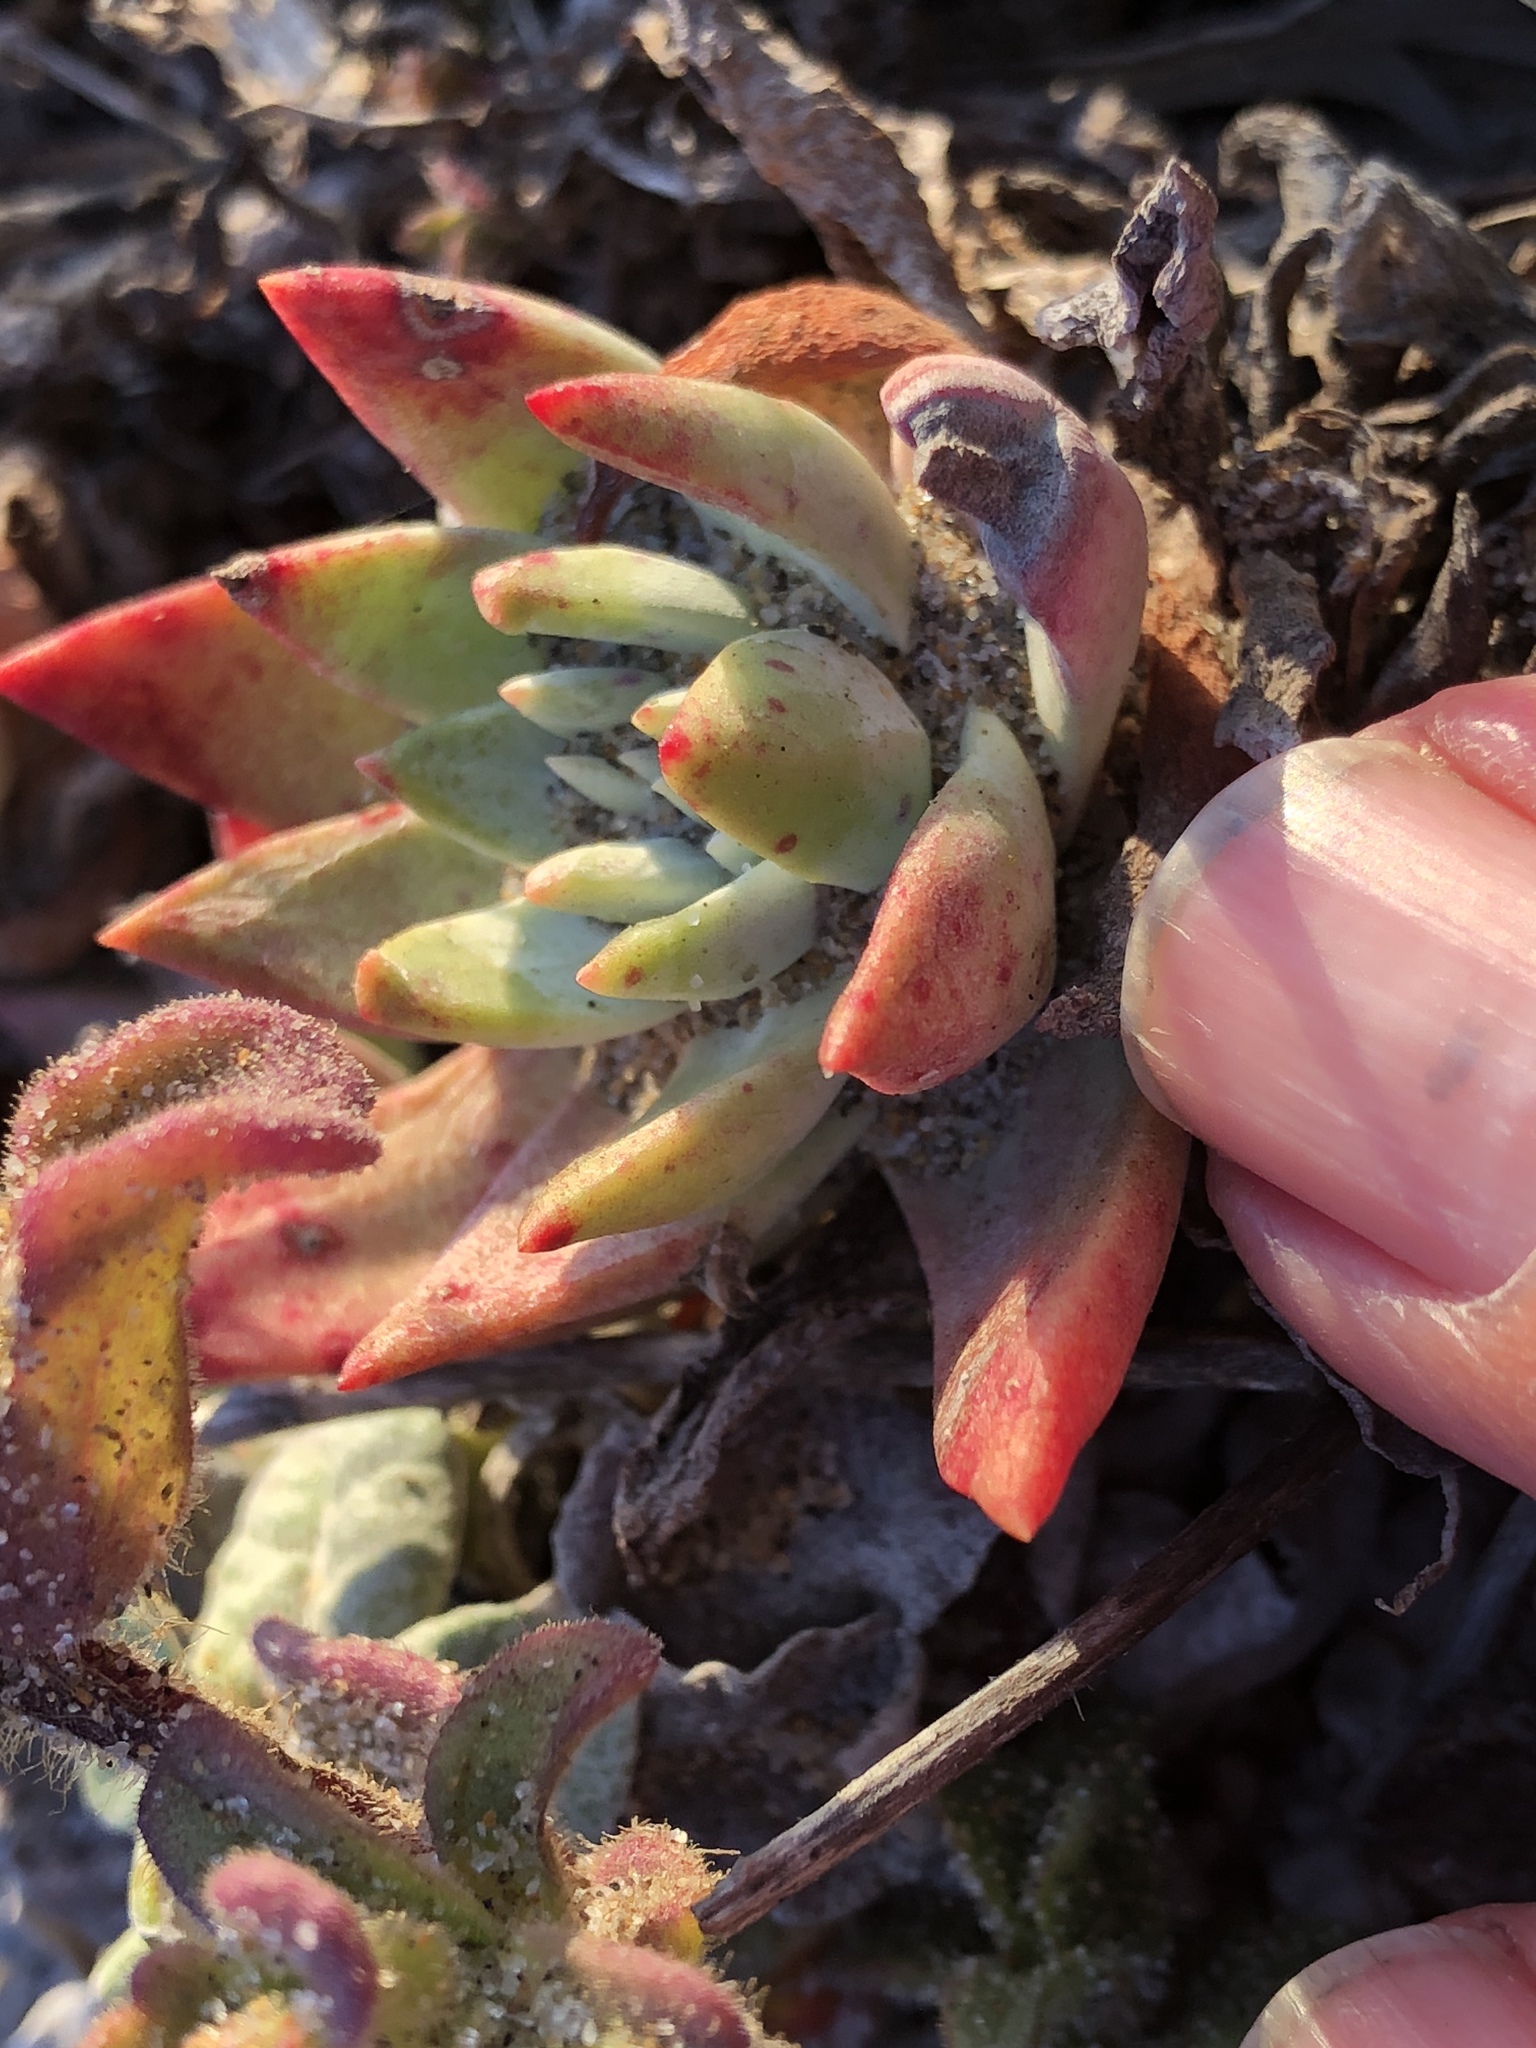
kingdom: Plantae
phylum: Tracheophyta
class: Magnoliopsida
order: Saxifragales
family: Crassulaceae
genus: Dudleya
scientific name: Dudleya caespitosa
